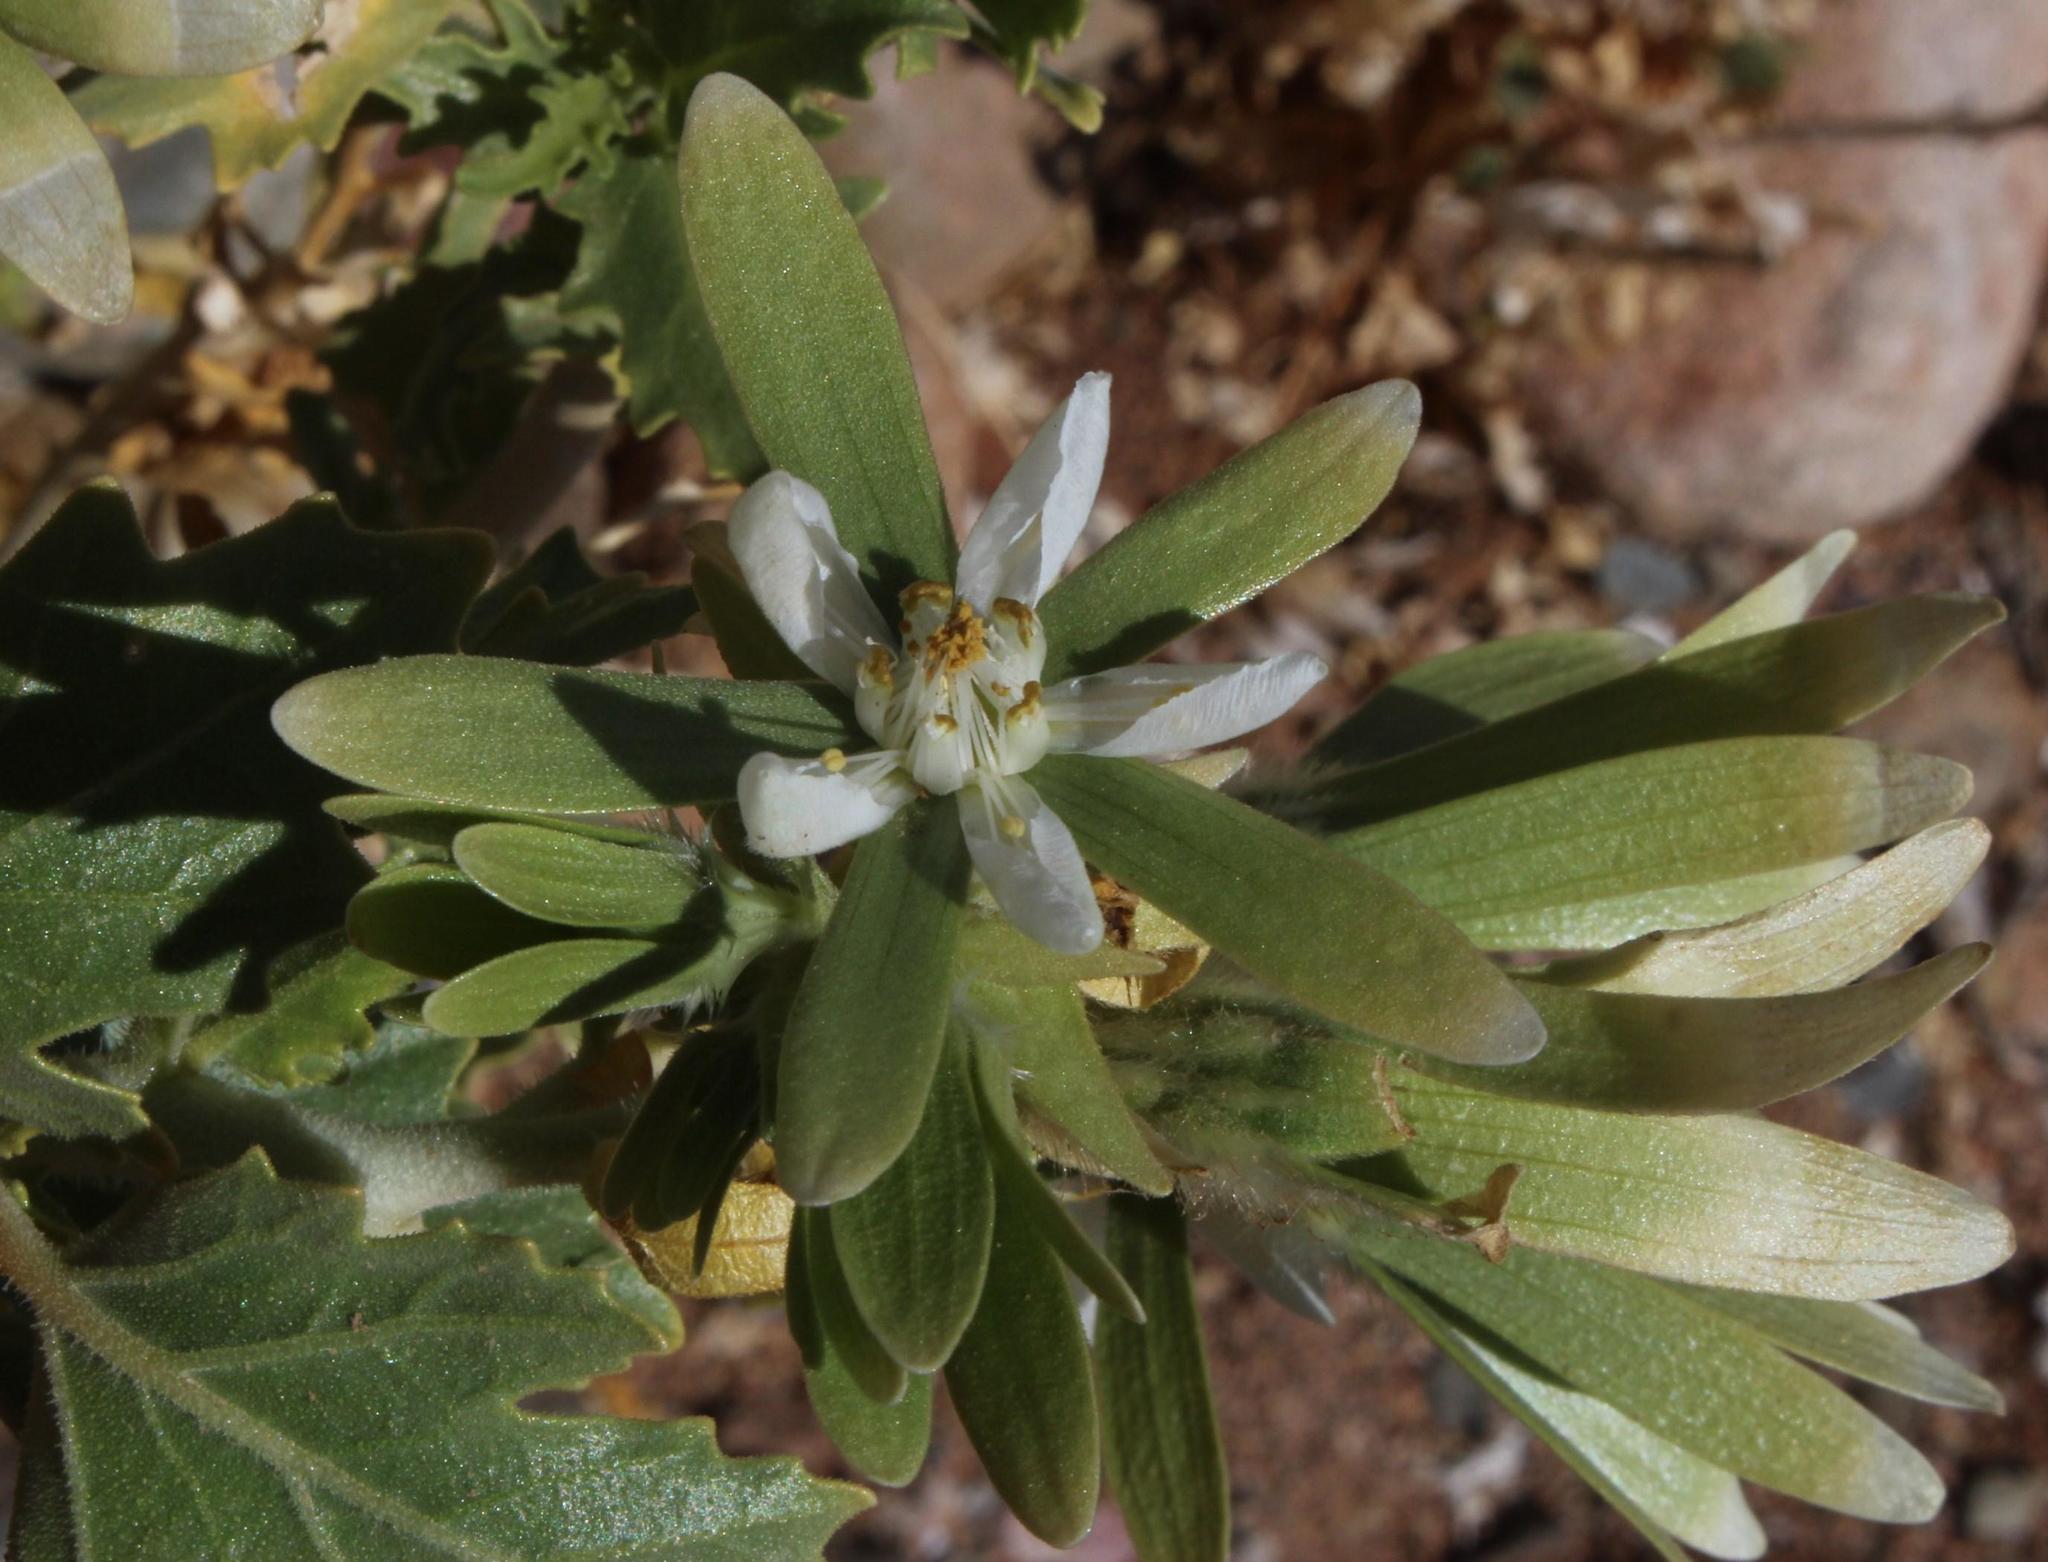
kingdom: Plantae
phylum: Tracheophyta
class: Magnoliopsida
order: Cornales
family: Loasaceae
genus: Kissenia
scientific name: Kissenia capensis
